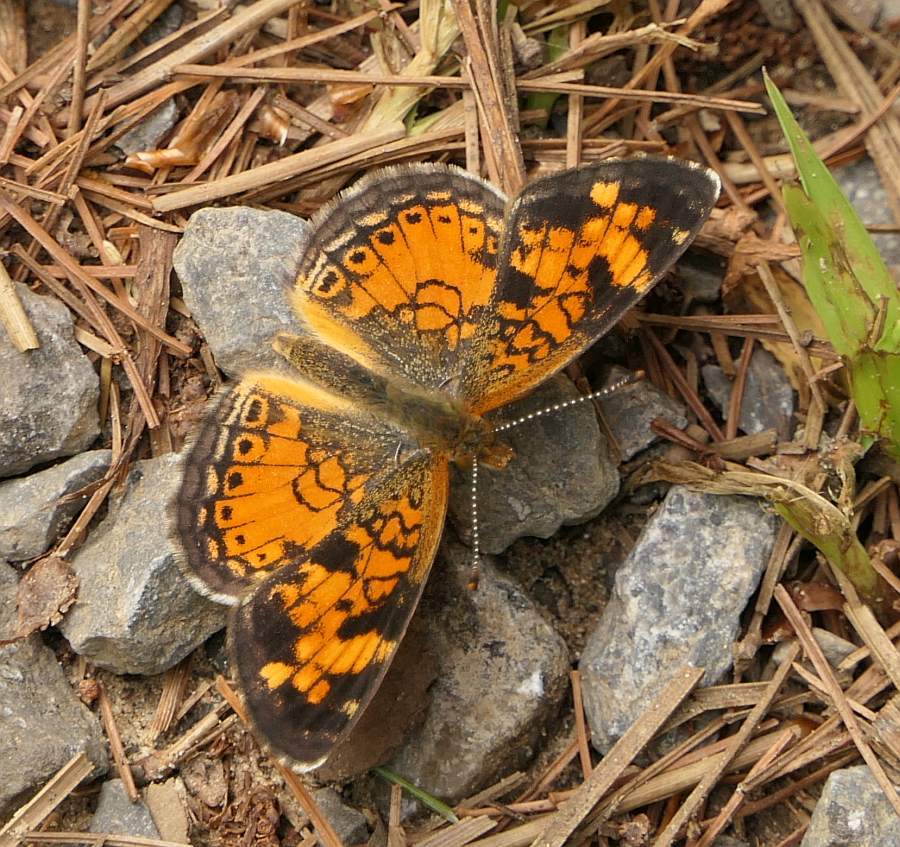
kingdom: Animalia
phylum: Arthropoda
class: Insecta
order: Lepidoptera
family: Nymphalidae
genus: Phyciodes
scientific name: Phyciodes tharos
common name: Pearl crescent
